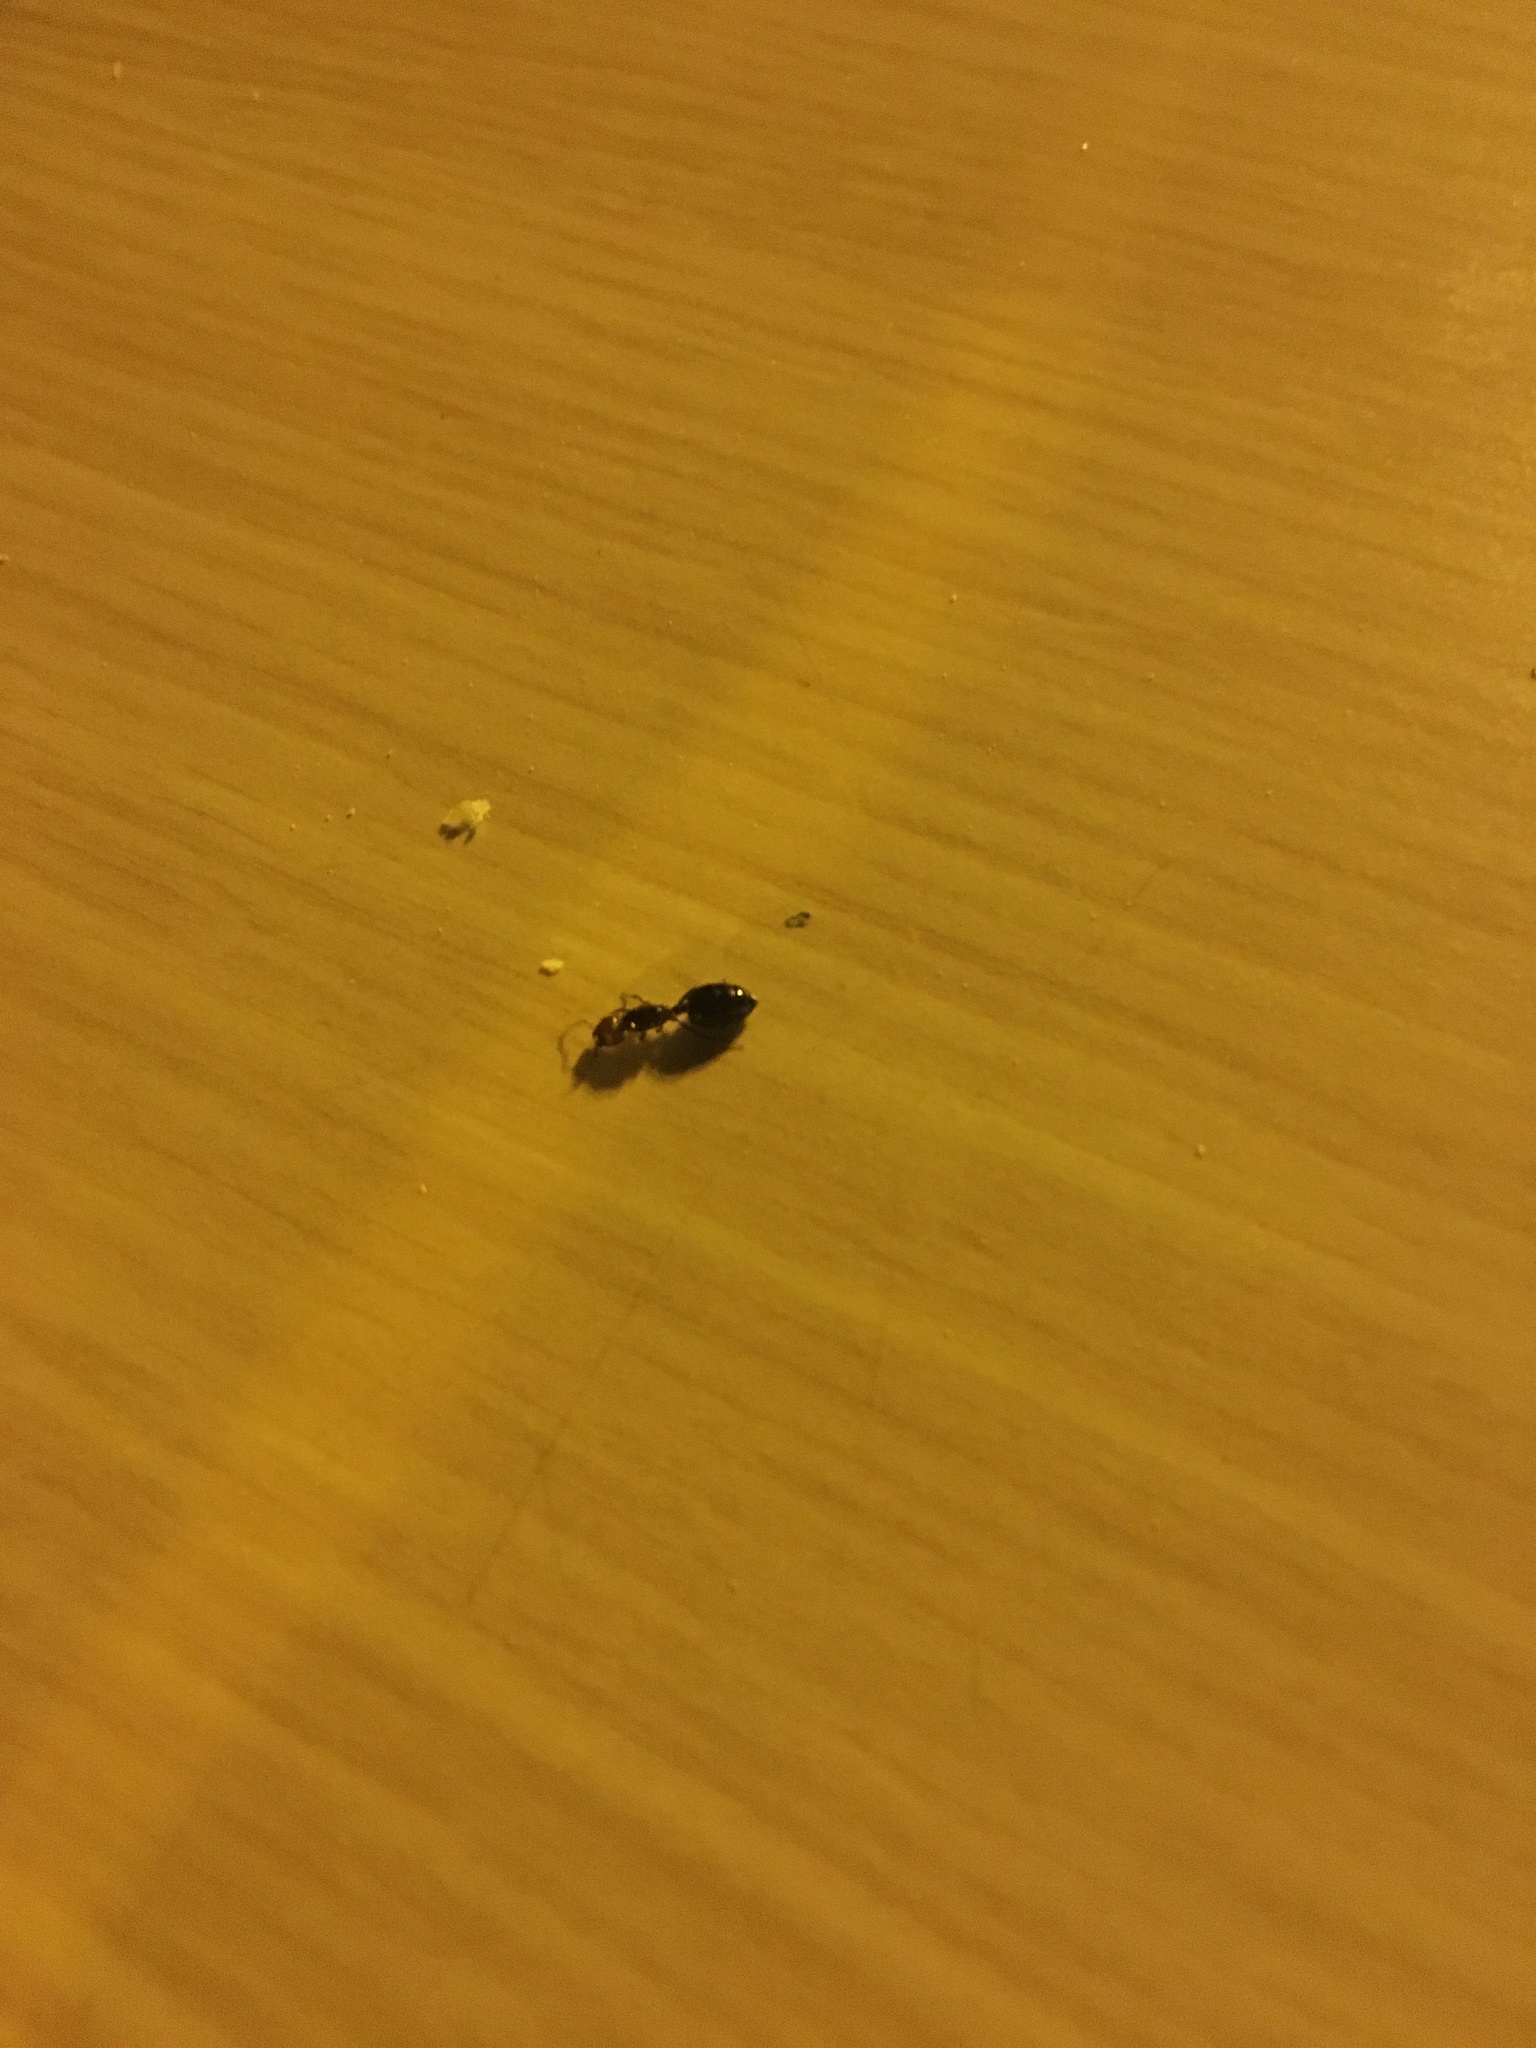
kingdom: Animalia
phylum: Arthropoda
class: Insecta
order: Hymenoptera
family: Formicidae
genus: Crematogaster
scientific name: Crematogaster scutellaris
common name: Fourmi du liège
